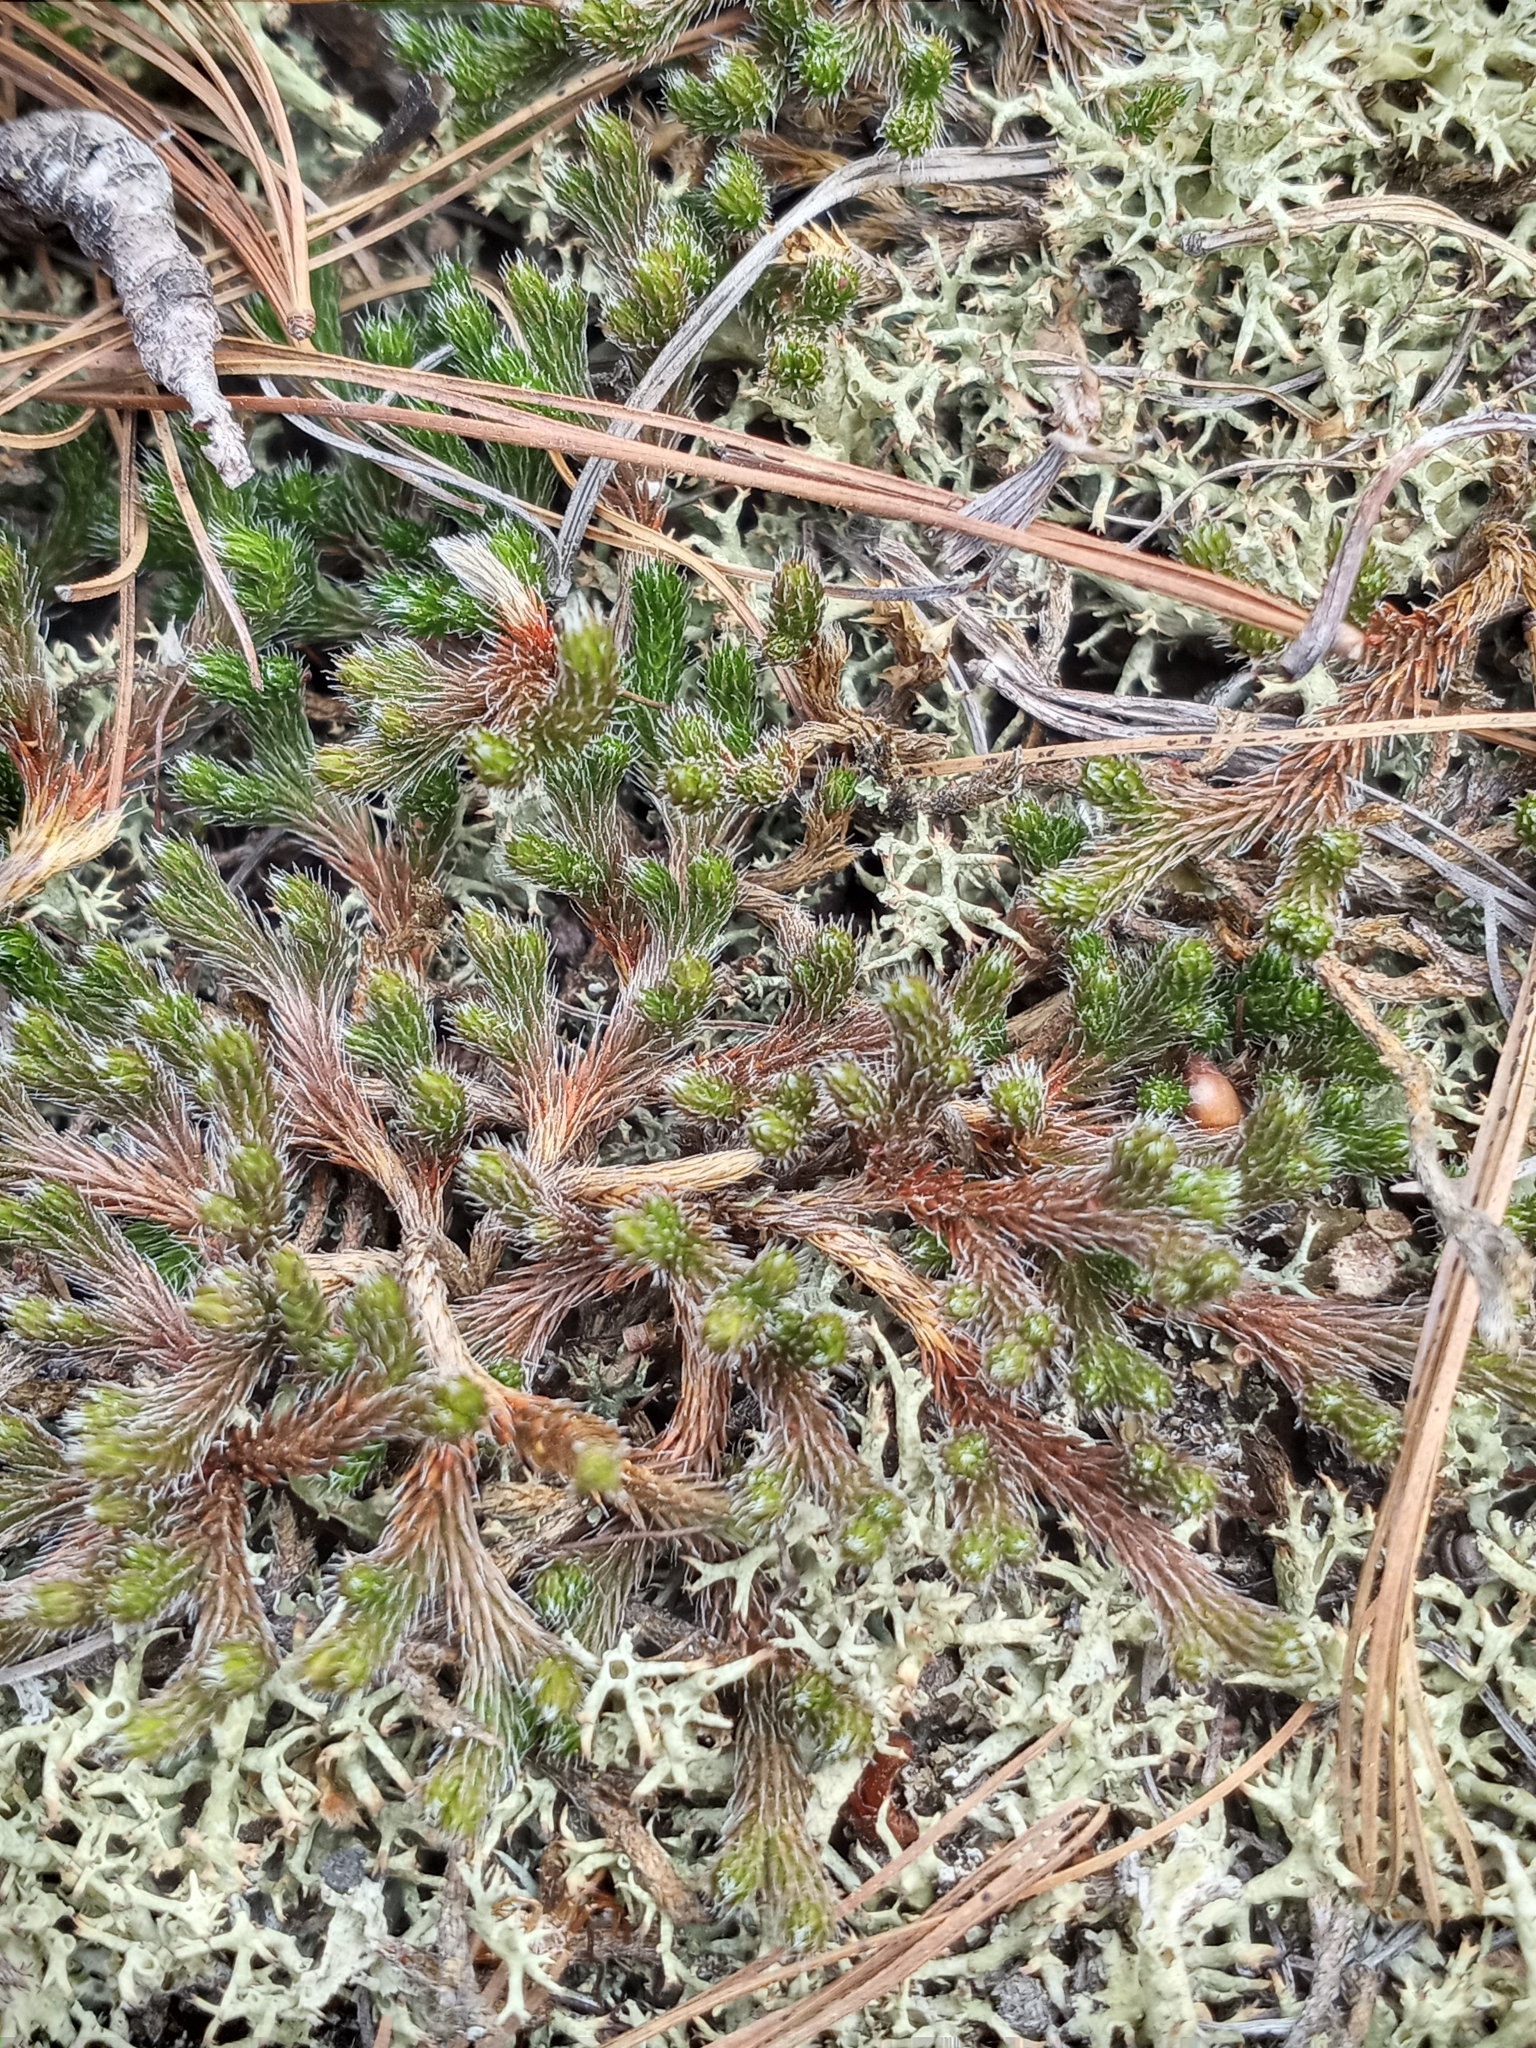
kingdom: Plantae
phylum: Tracheophyta
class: Lycopodiopsida
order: Selaginellales
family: Selaginellaceae
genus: Selaginella
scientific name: Selaginella rupestris
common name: Dwarf spikemoss
